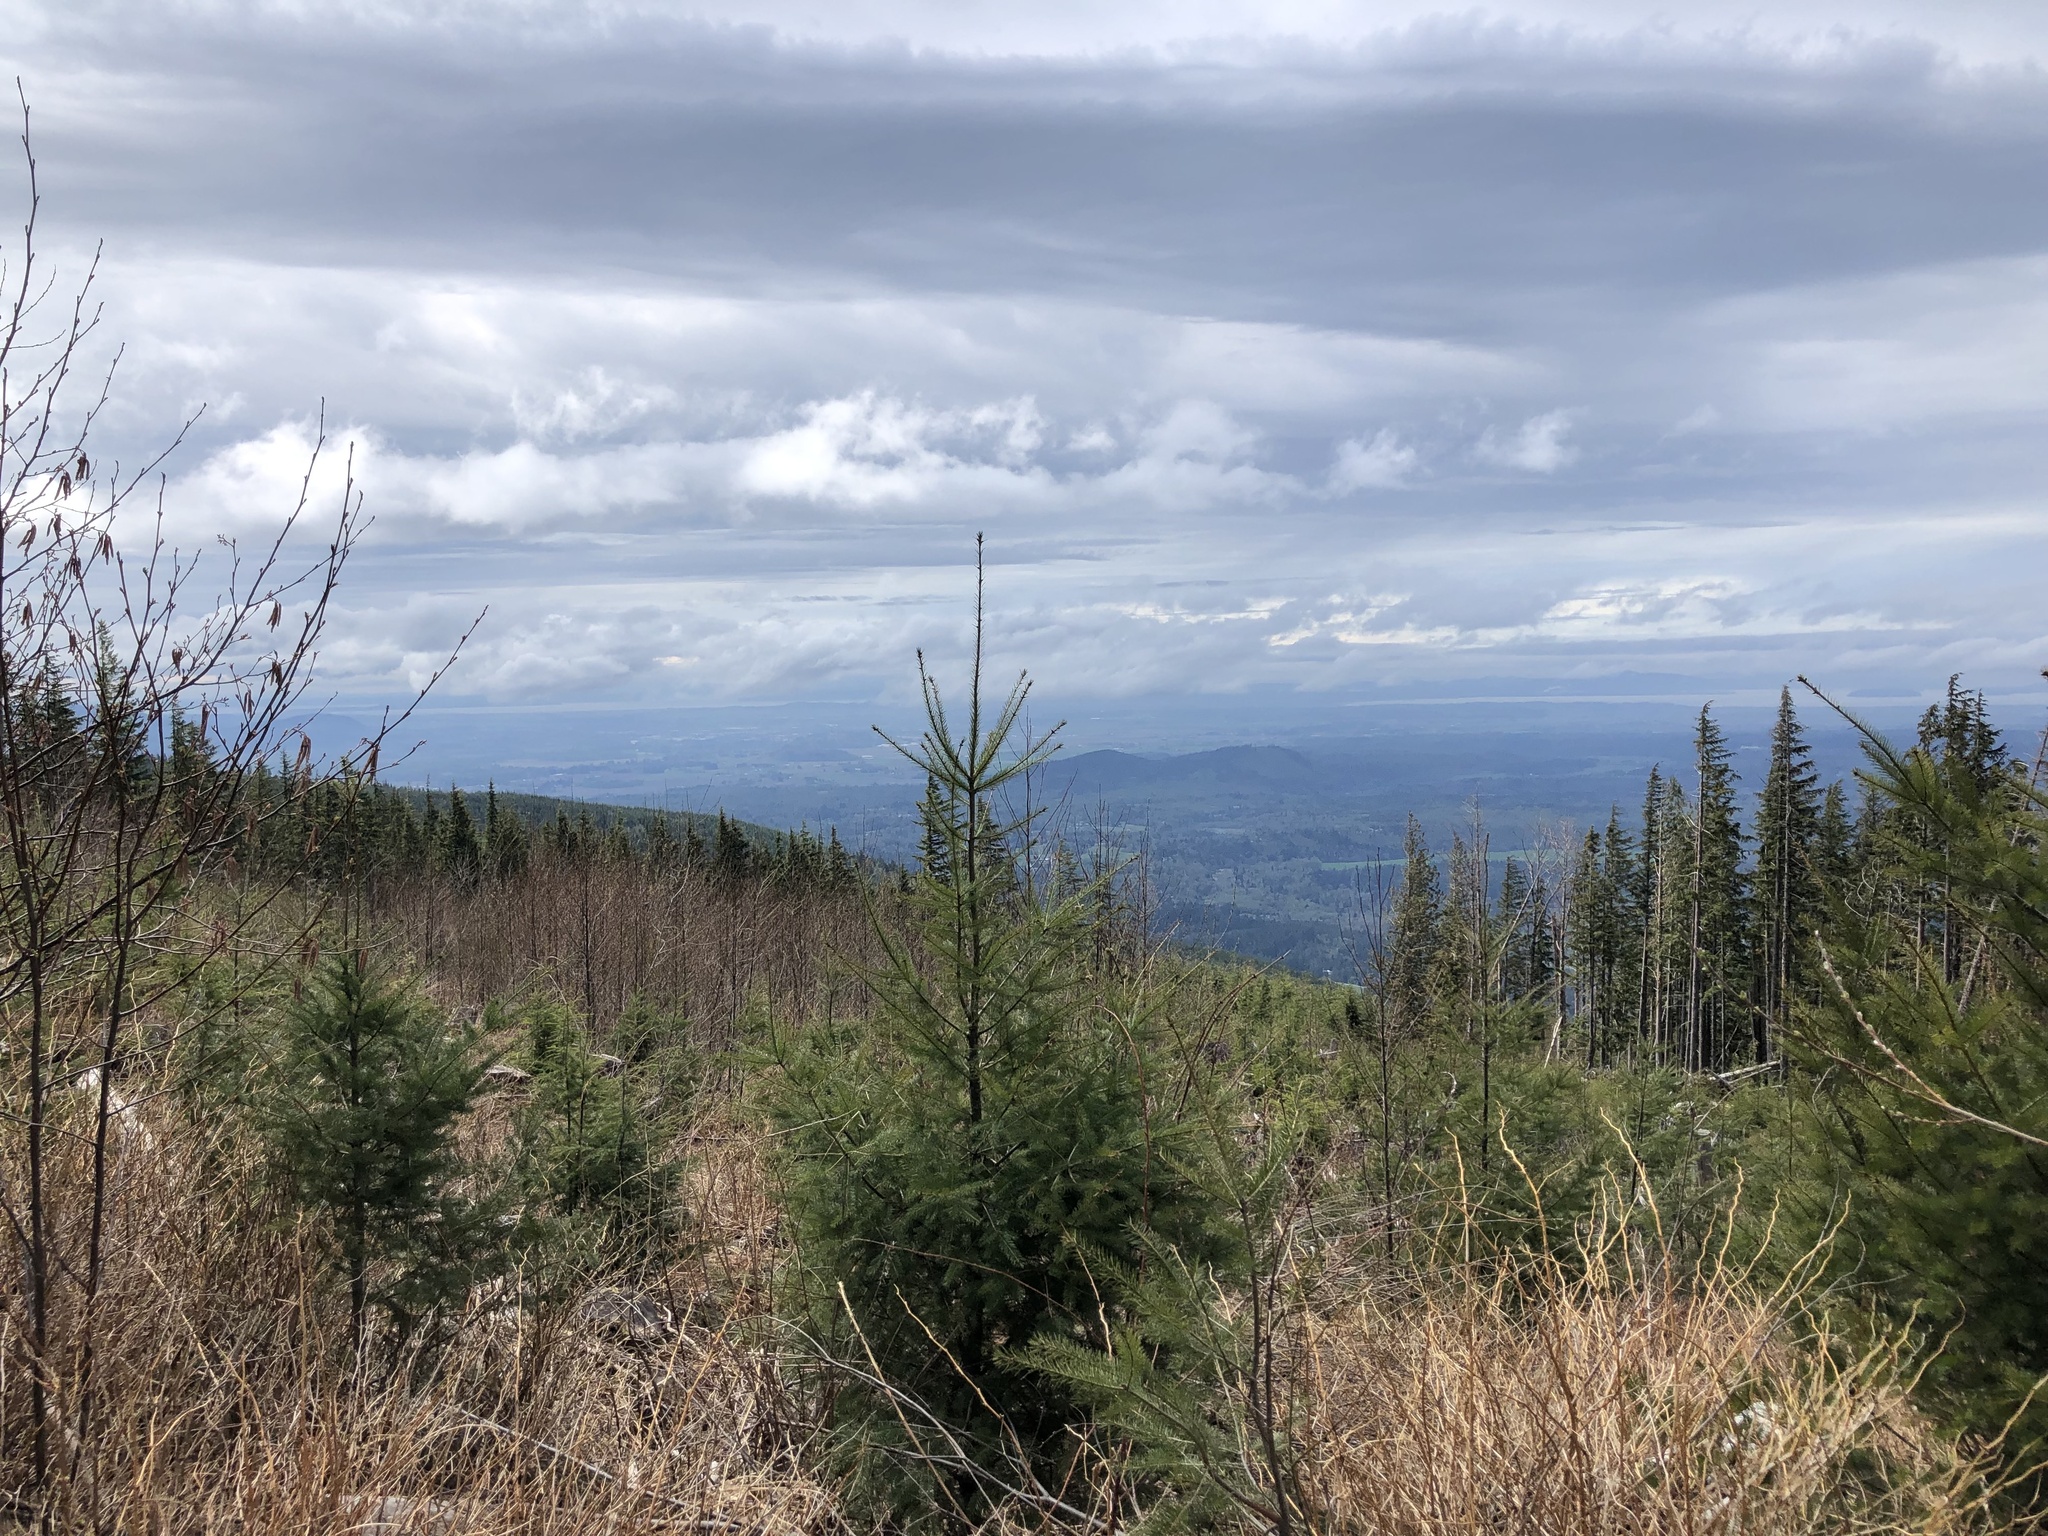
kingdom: Plantae
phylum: Tracheophyta
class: Pinopsida
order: Pinales
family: Pinaceae
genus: Pseudotsuga
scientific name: Pseudotsuga menziesii
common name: Douglas fir
